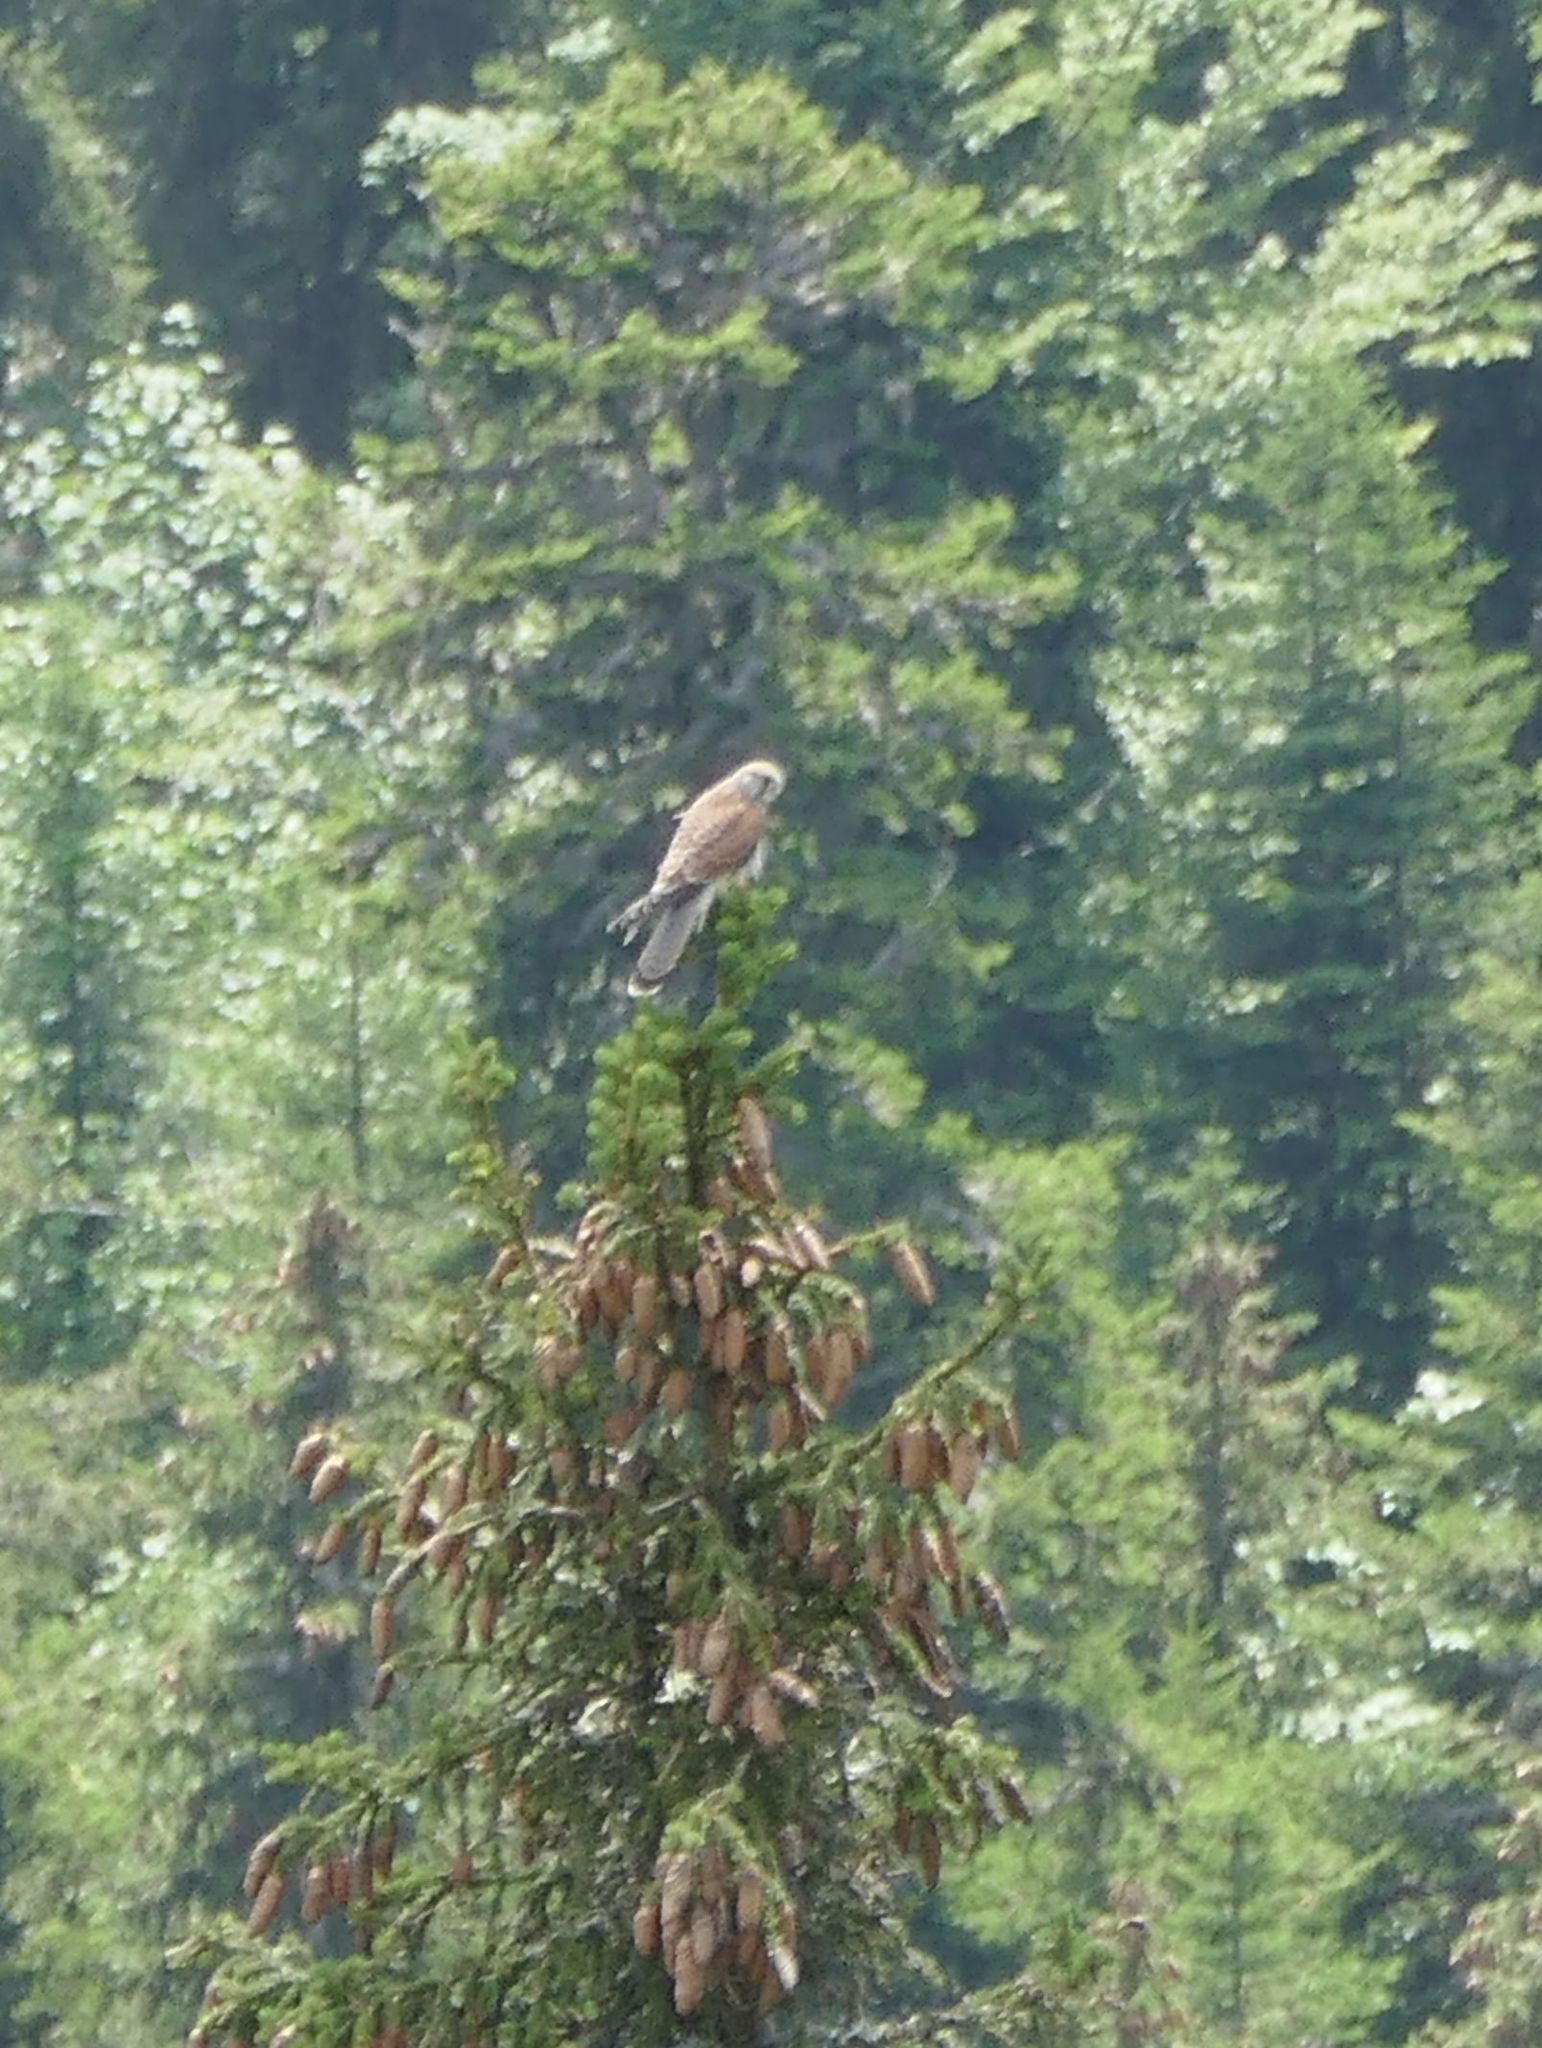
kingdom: Animalia
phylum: Chordata
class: Aves
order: Falconiformes
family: Falconidae
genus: Falco
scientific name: Falco tinnunculus
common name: Common kestrel
